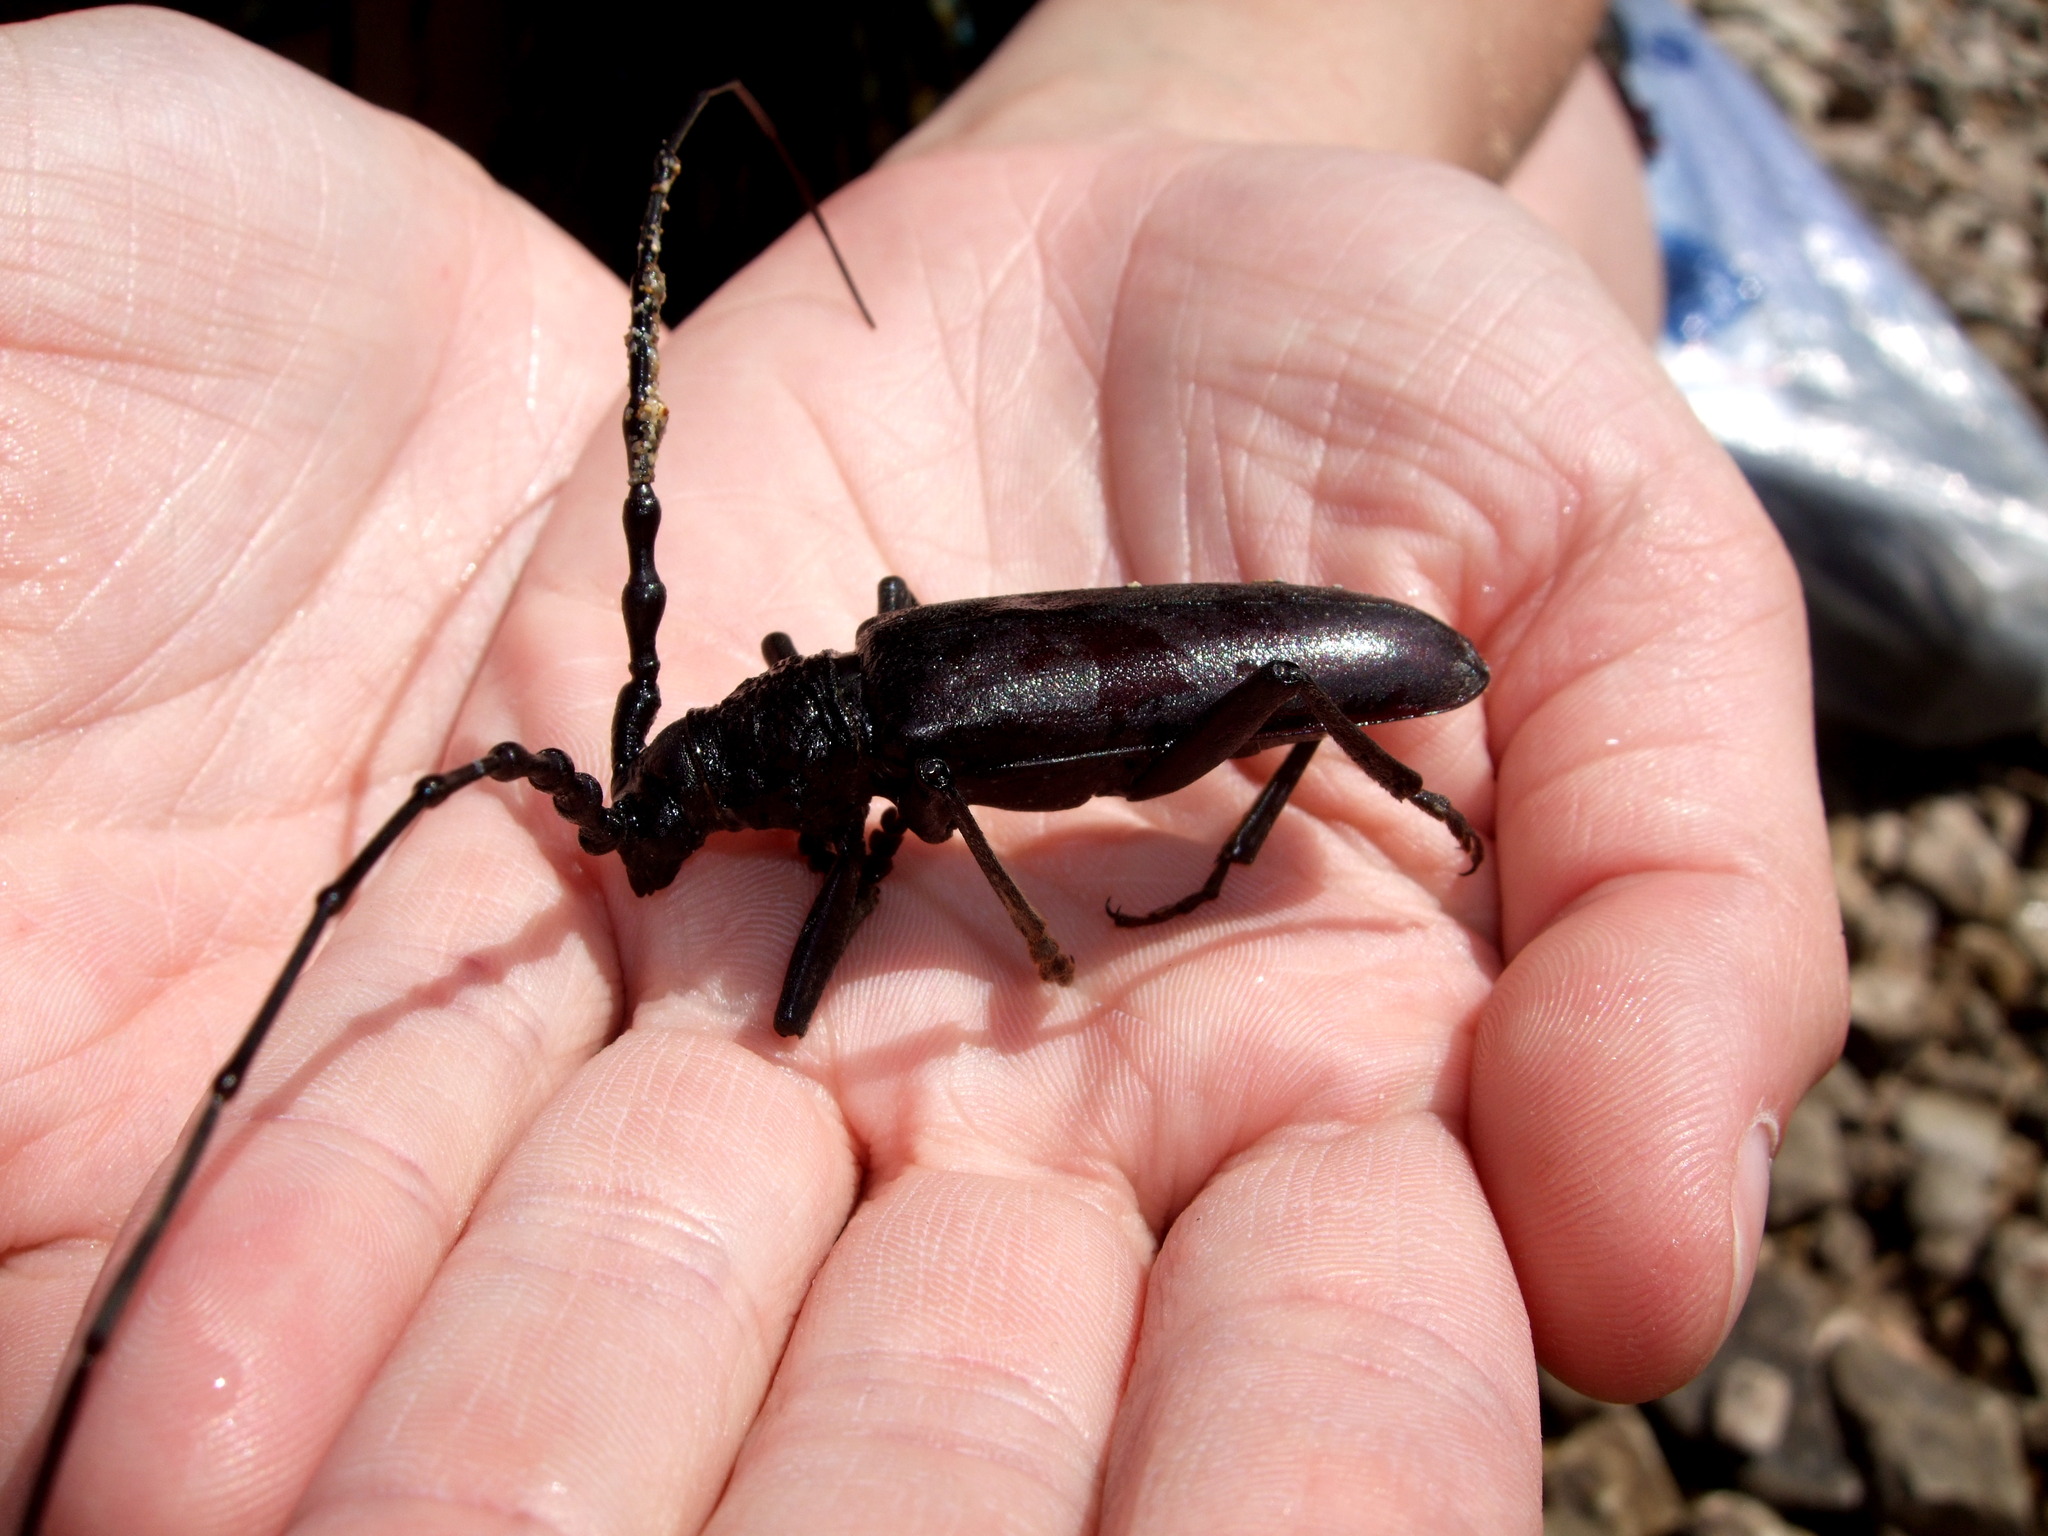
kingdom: Animalia
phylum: Arthropoda
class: Insecta
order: Coleoptera
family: Cerambycidae
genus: Cerambyx
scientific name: Cerambyx welensii
